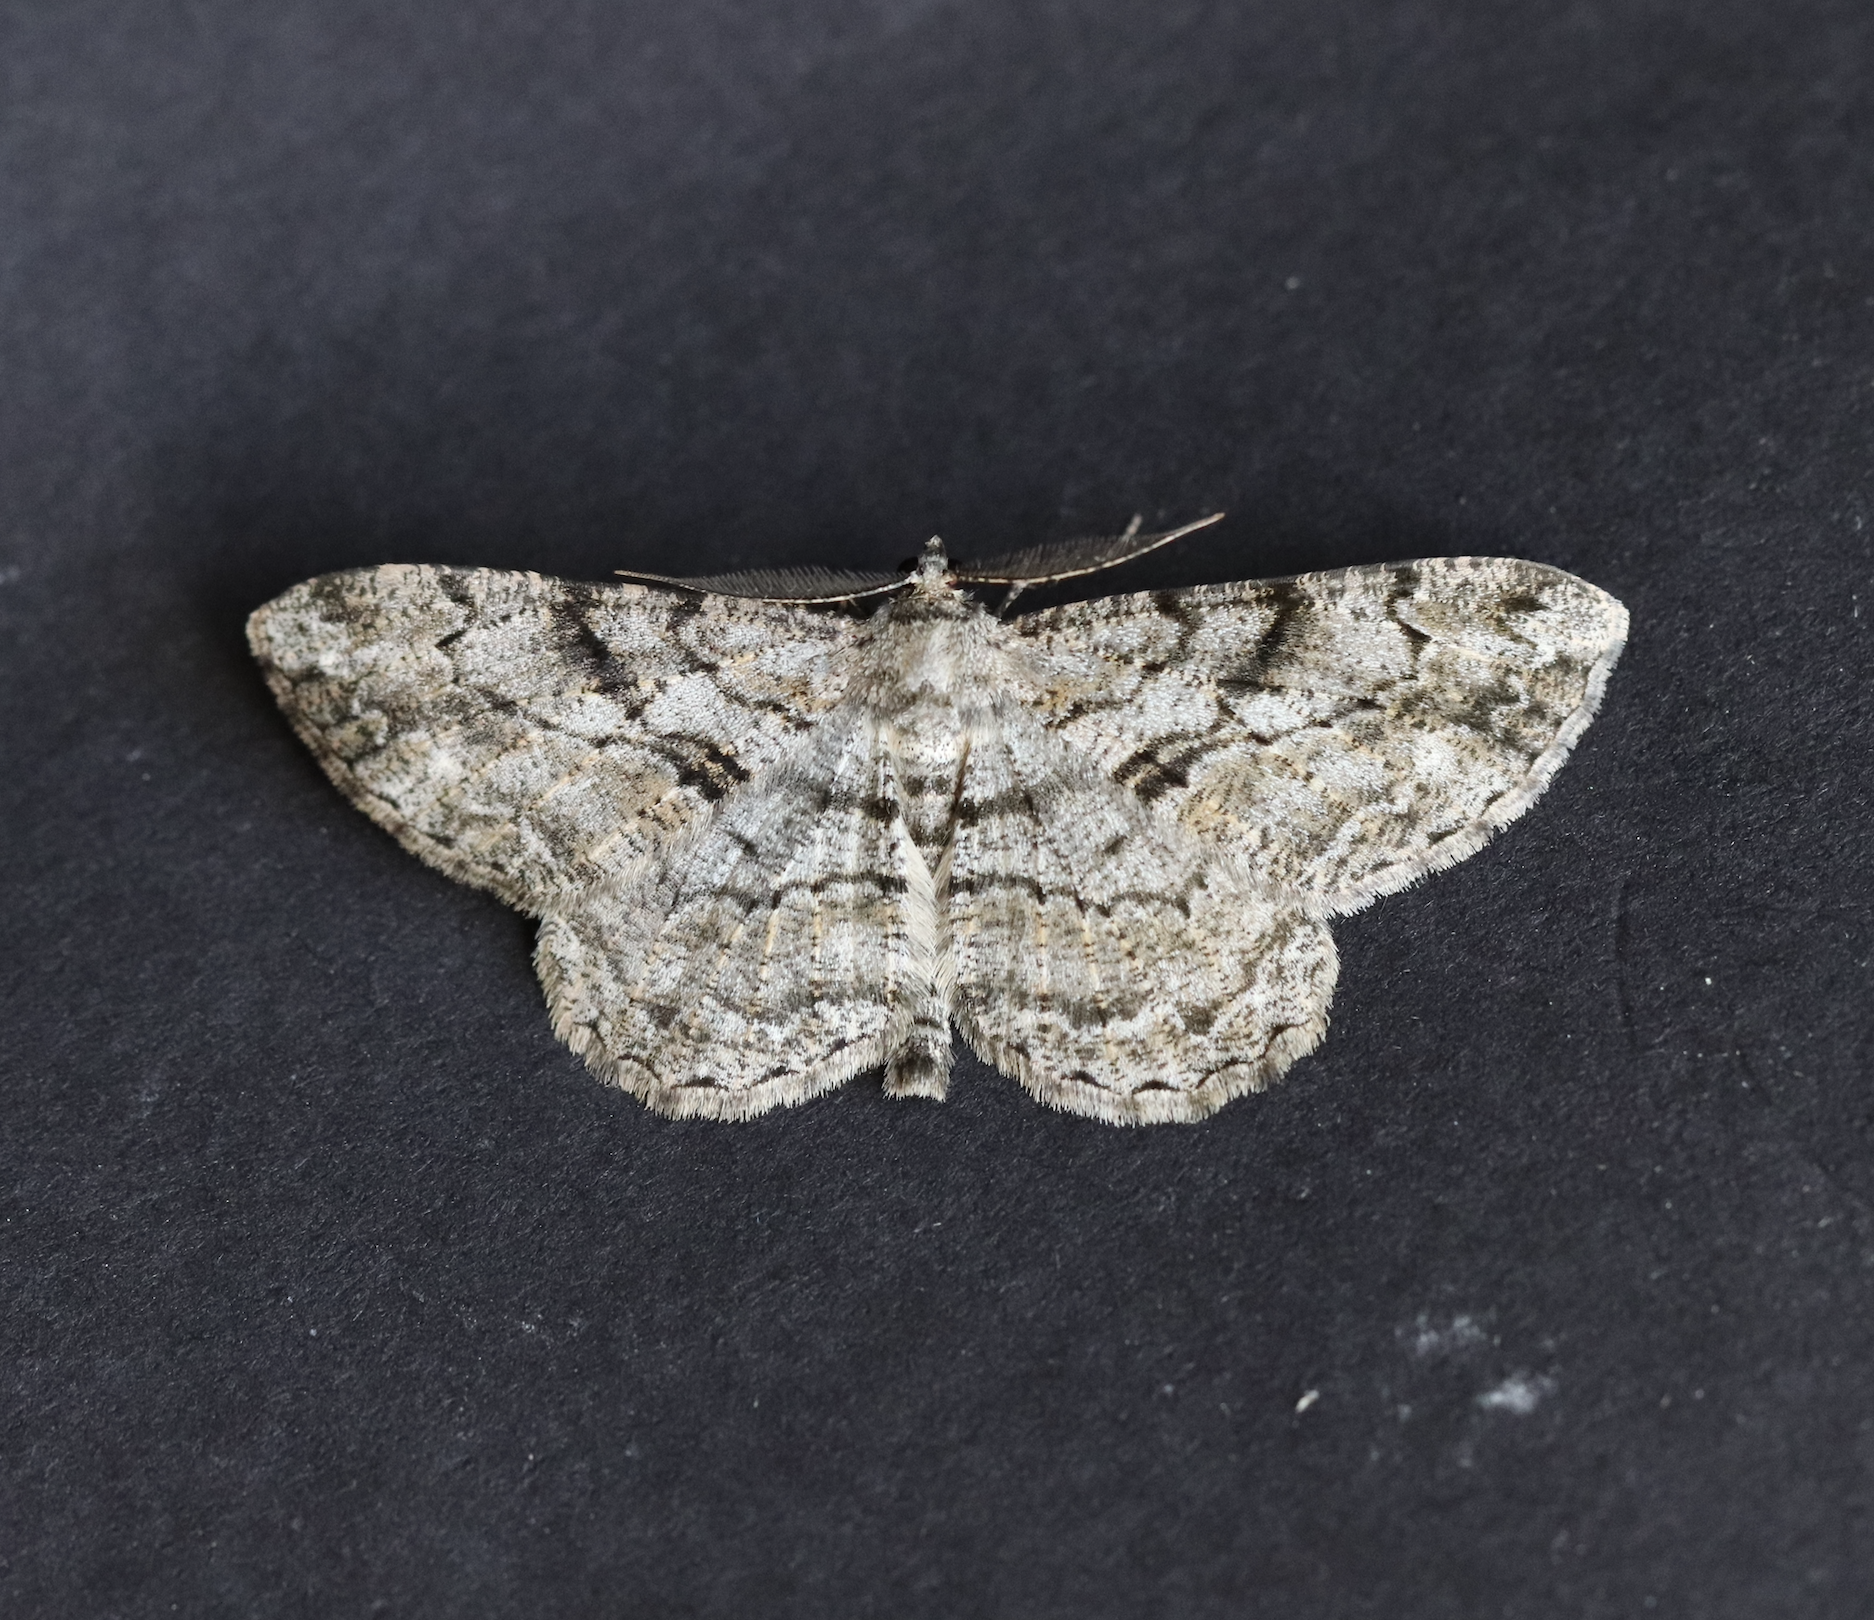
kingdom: Animalia
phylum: Arthropoda
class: Insecta
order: Lepidoptera
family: Geometridae
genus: Peribatodes
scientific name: Peribatodes rhomboidaria
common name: Willow beauty
